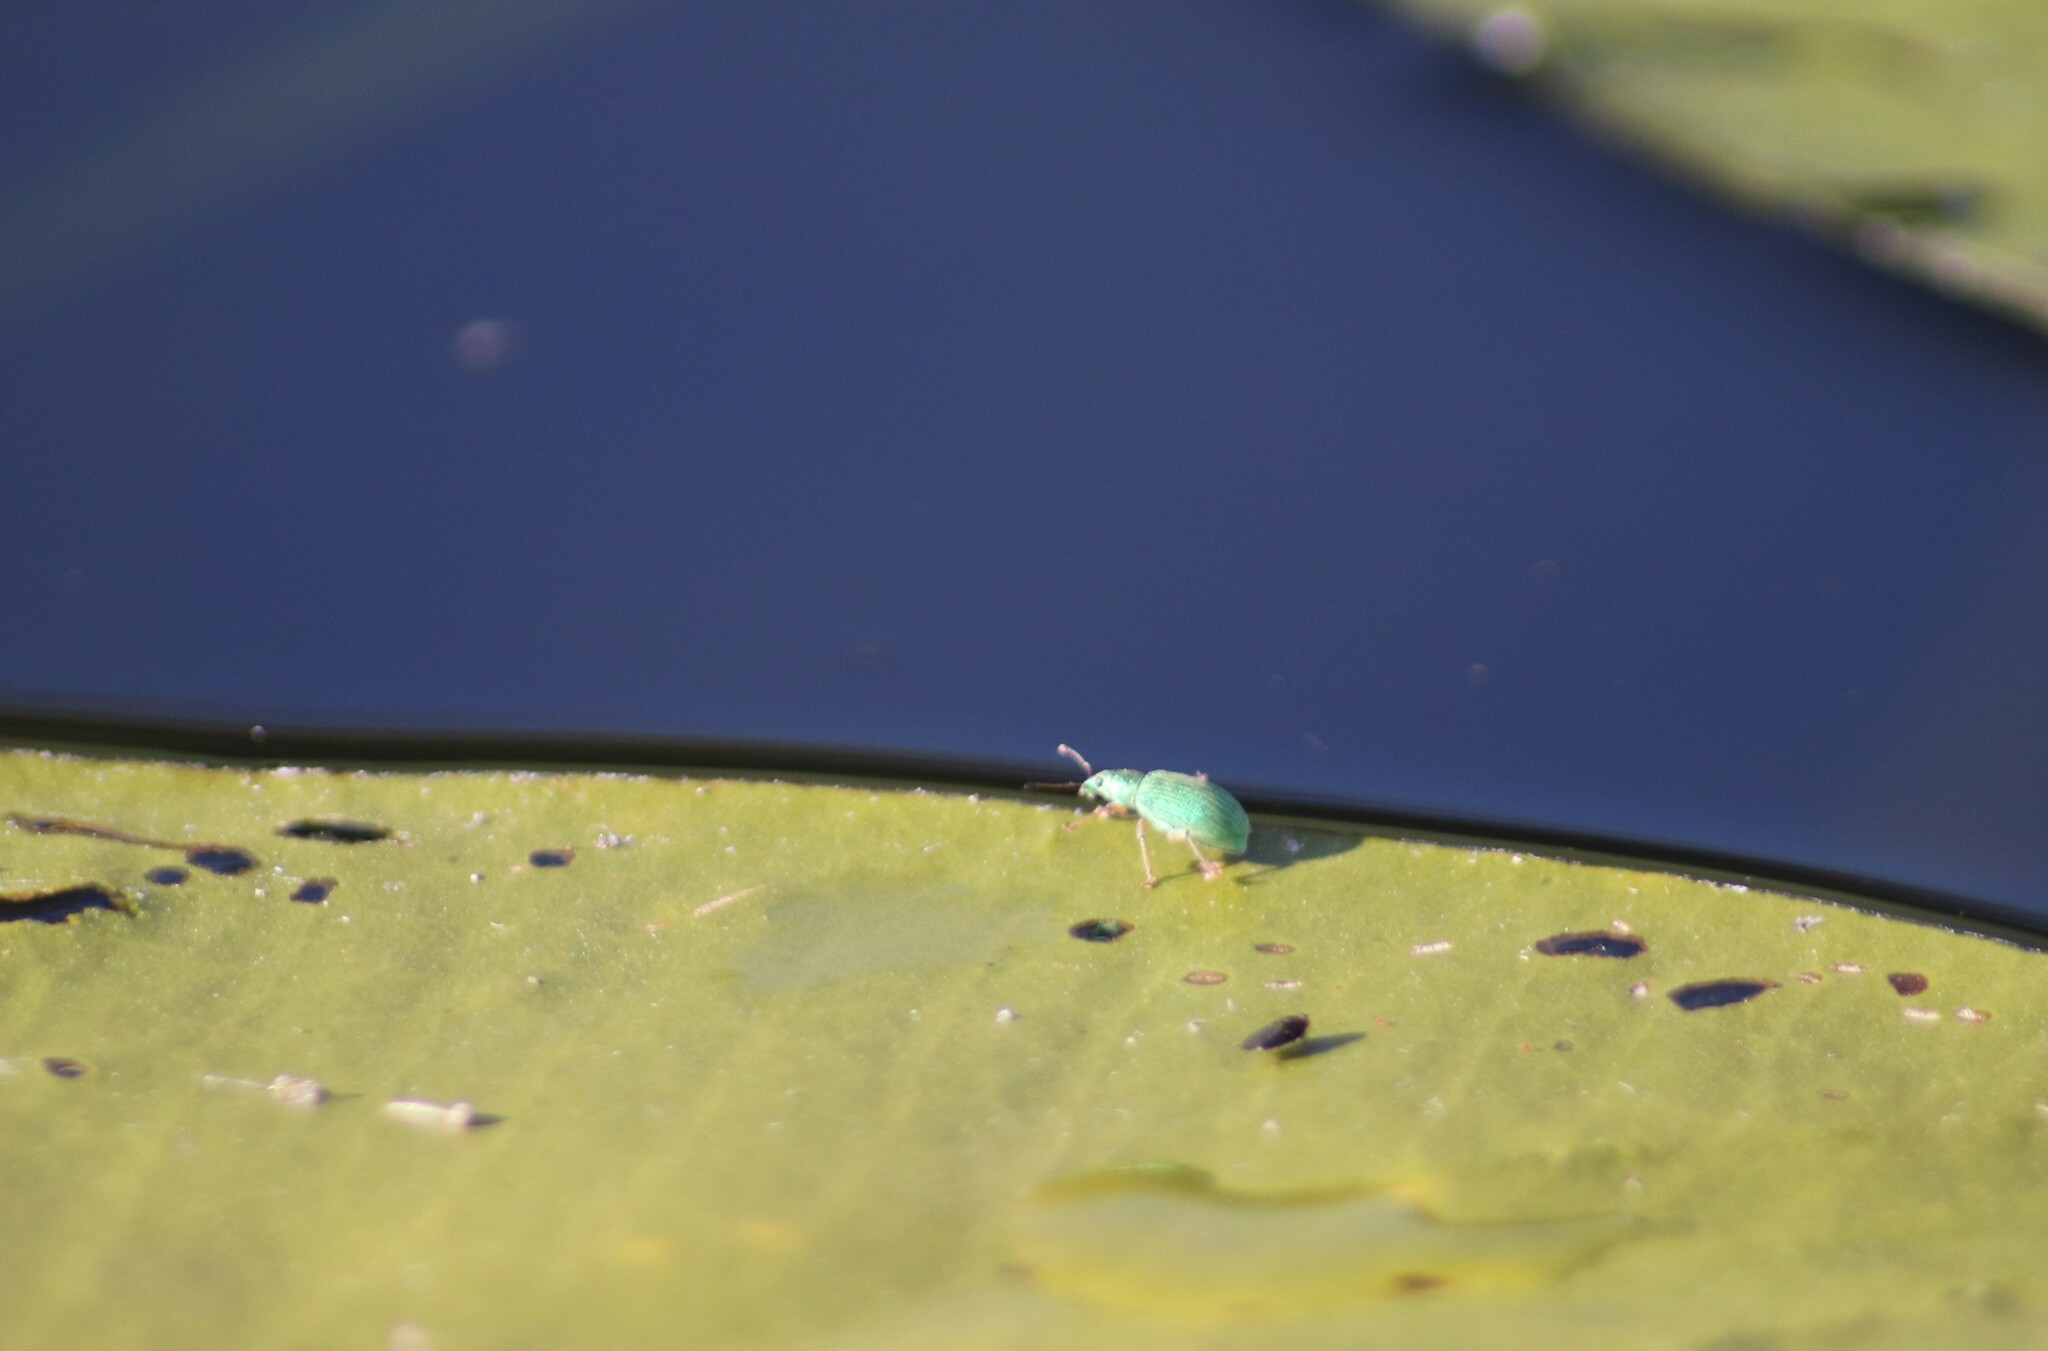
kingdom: Animalia
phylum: Arthropoda
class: Insecta
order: Coleoptera
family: Curculionidae
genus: Polydrusus
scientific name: Polydrusus formosus
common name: Weevil
